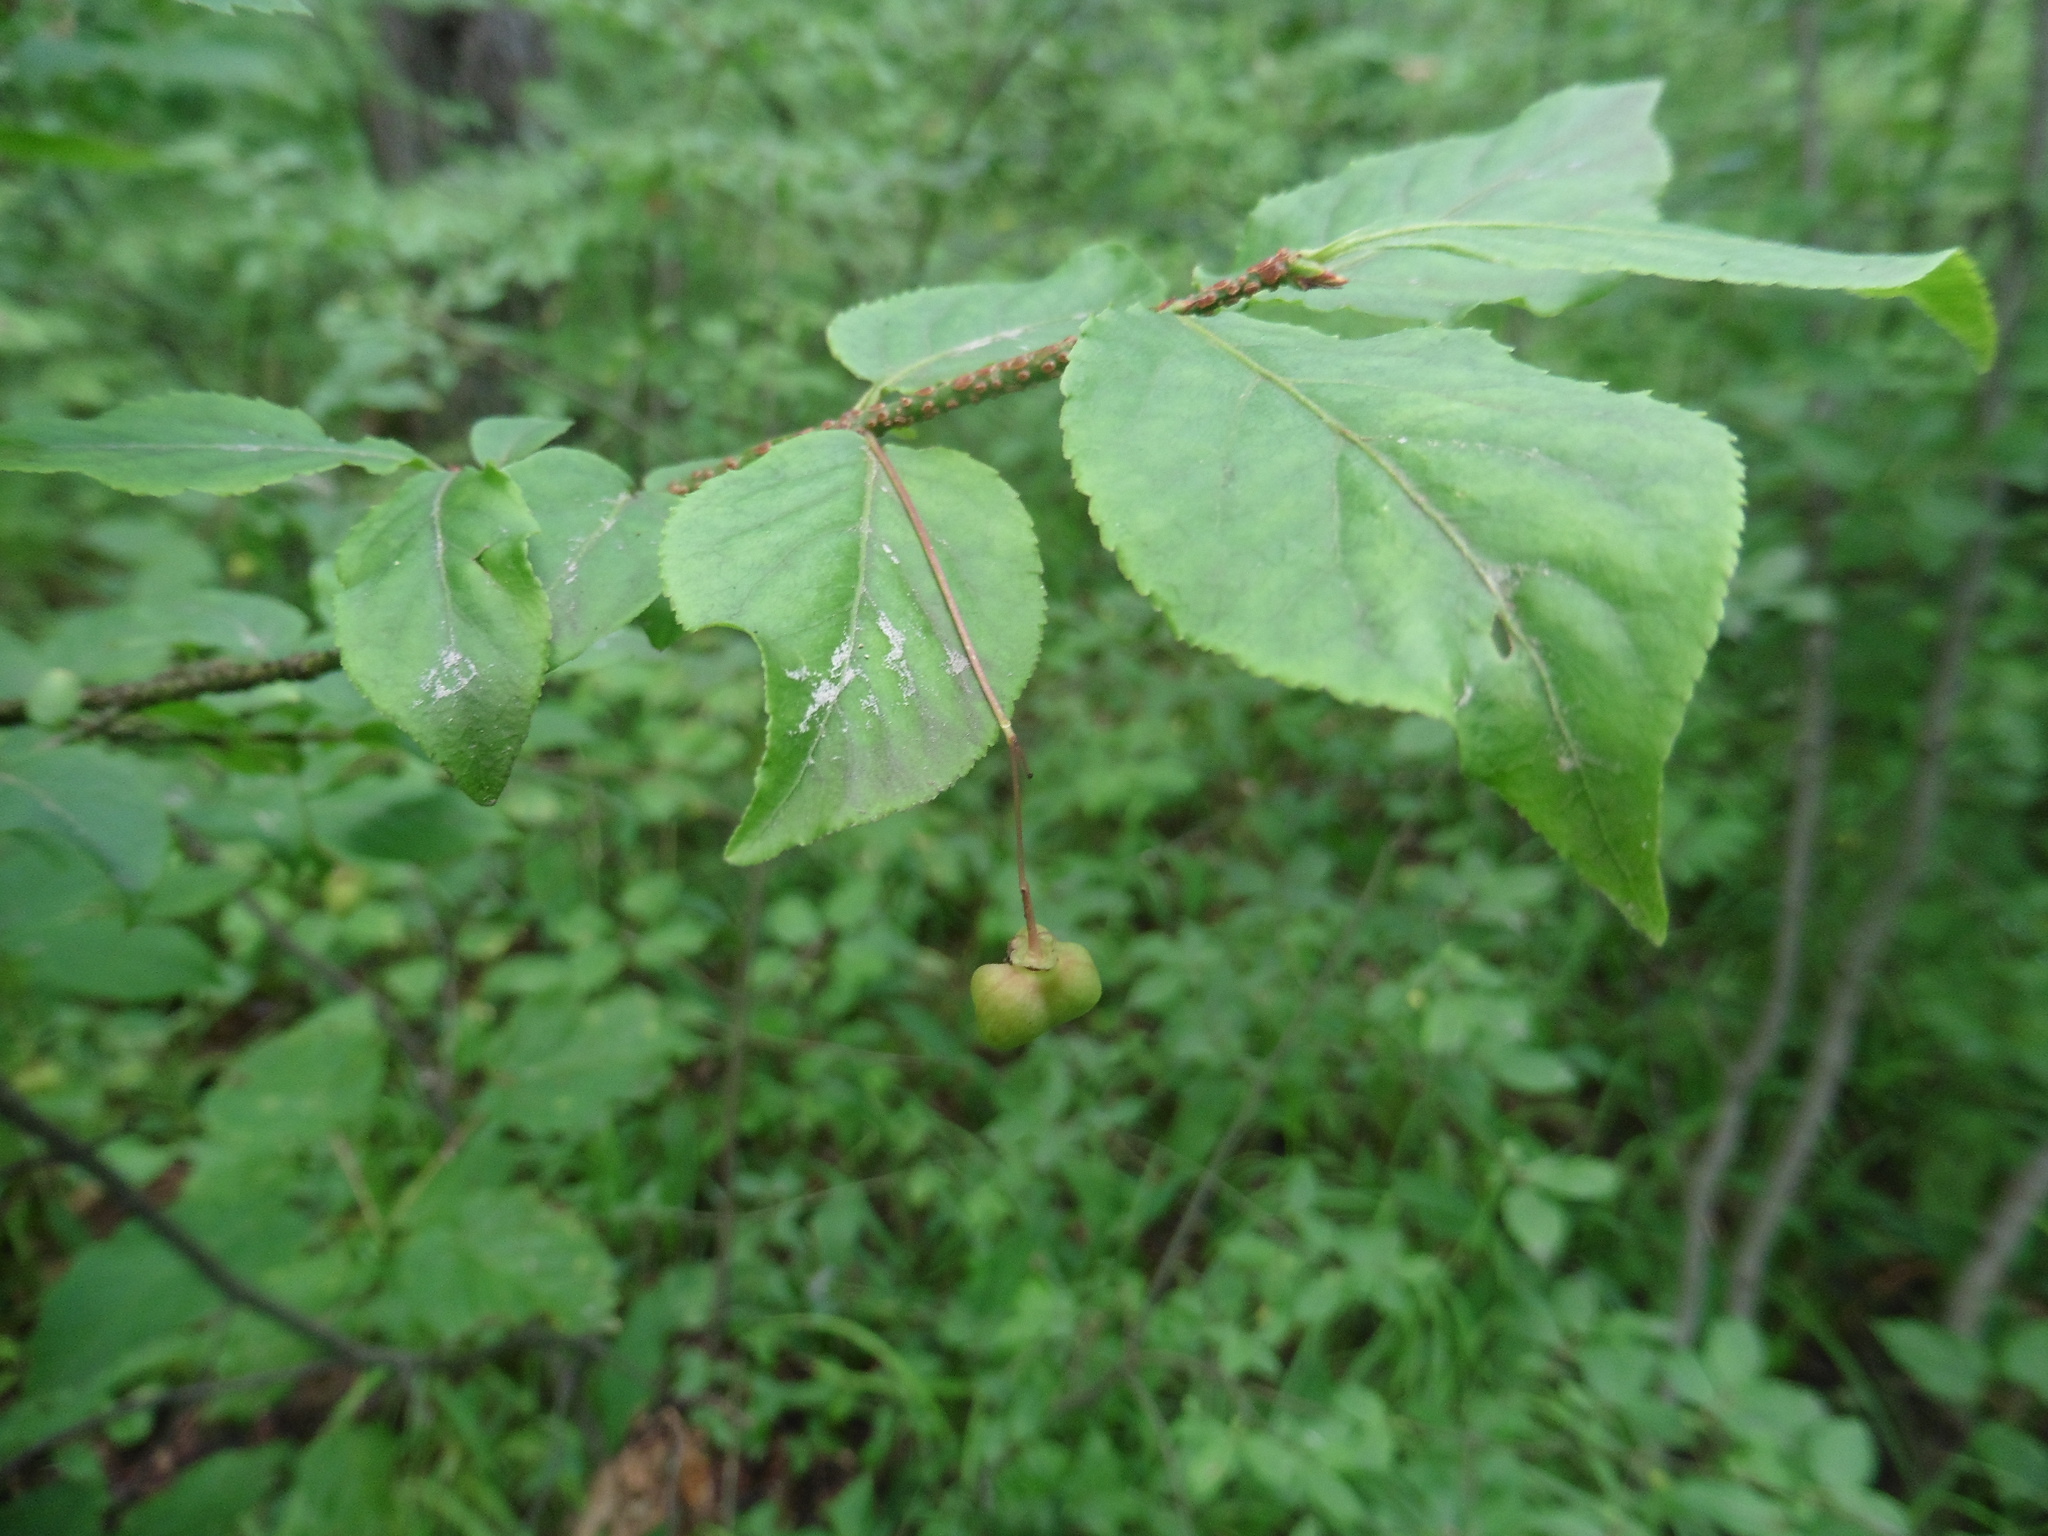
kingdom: Plantae
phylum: Tracheophyta
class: Magnoliopsida
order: Celastrales
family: Celastraceae
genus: Euonymus
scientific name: Euonymus verrucosus
